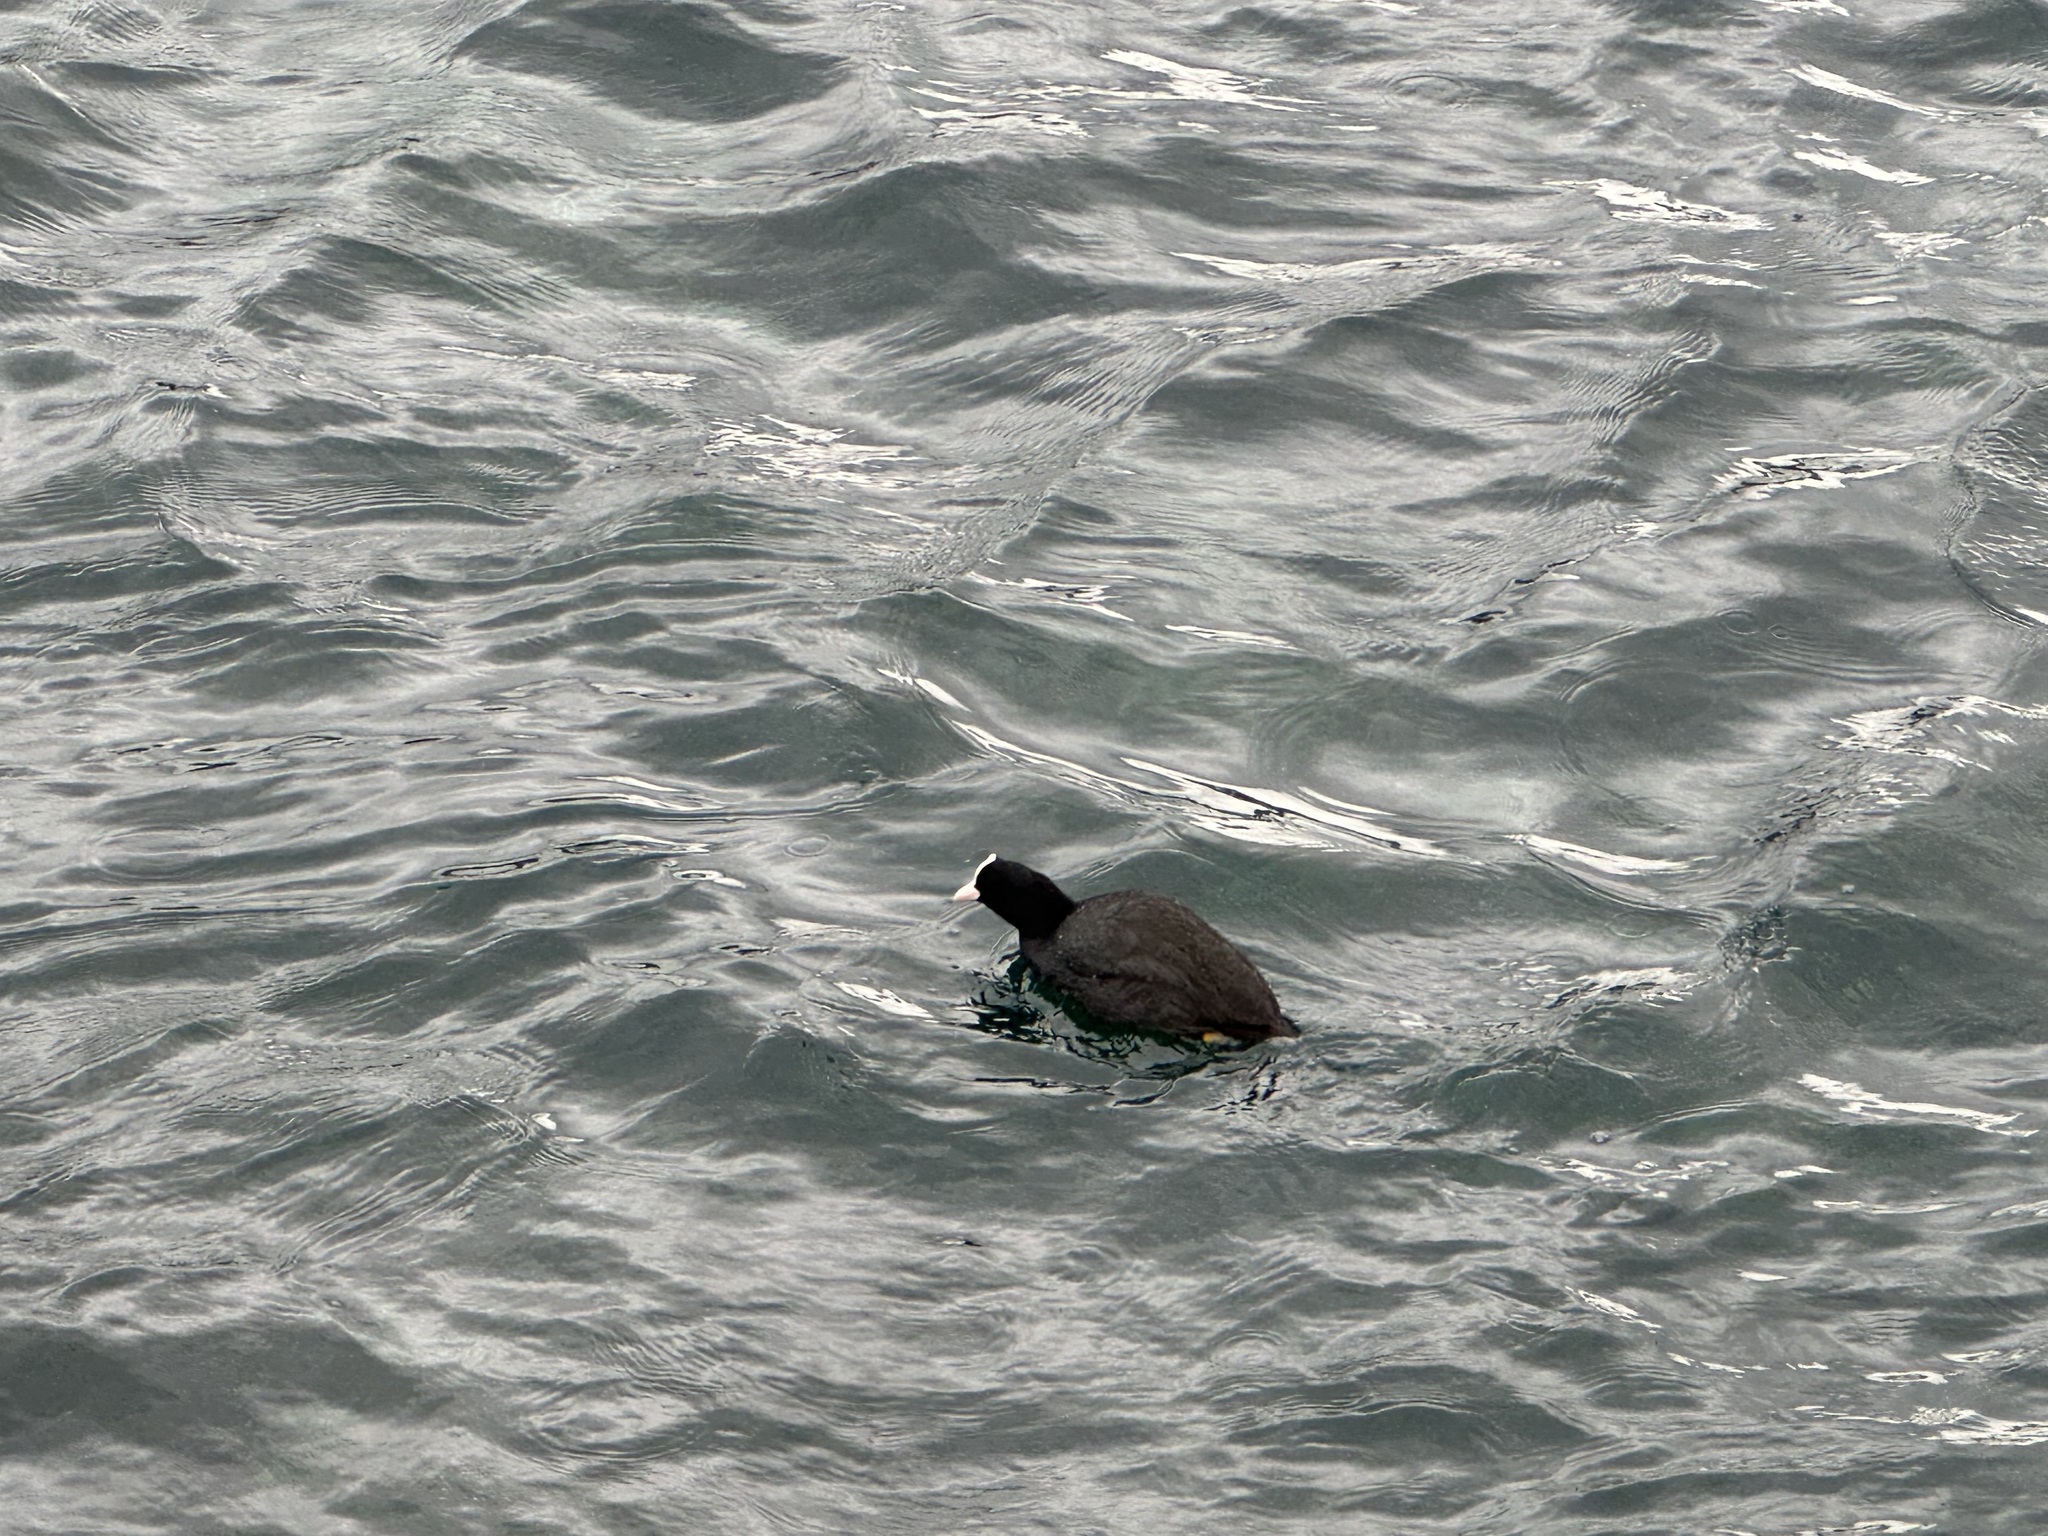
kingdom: Animalia
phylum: Chordata
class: Aves
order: Gruiformes
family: Rallidae
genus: Fulica
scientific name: Fulica atra
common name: Eurasian coot
